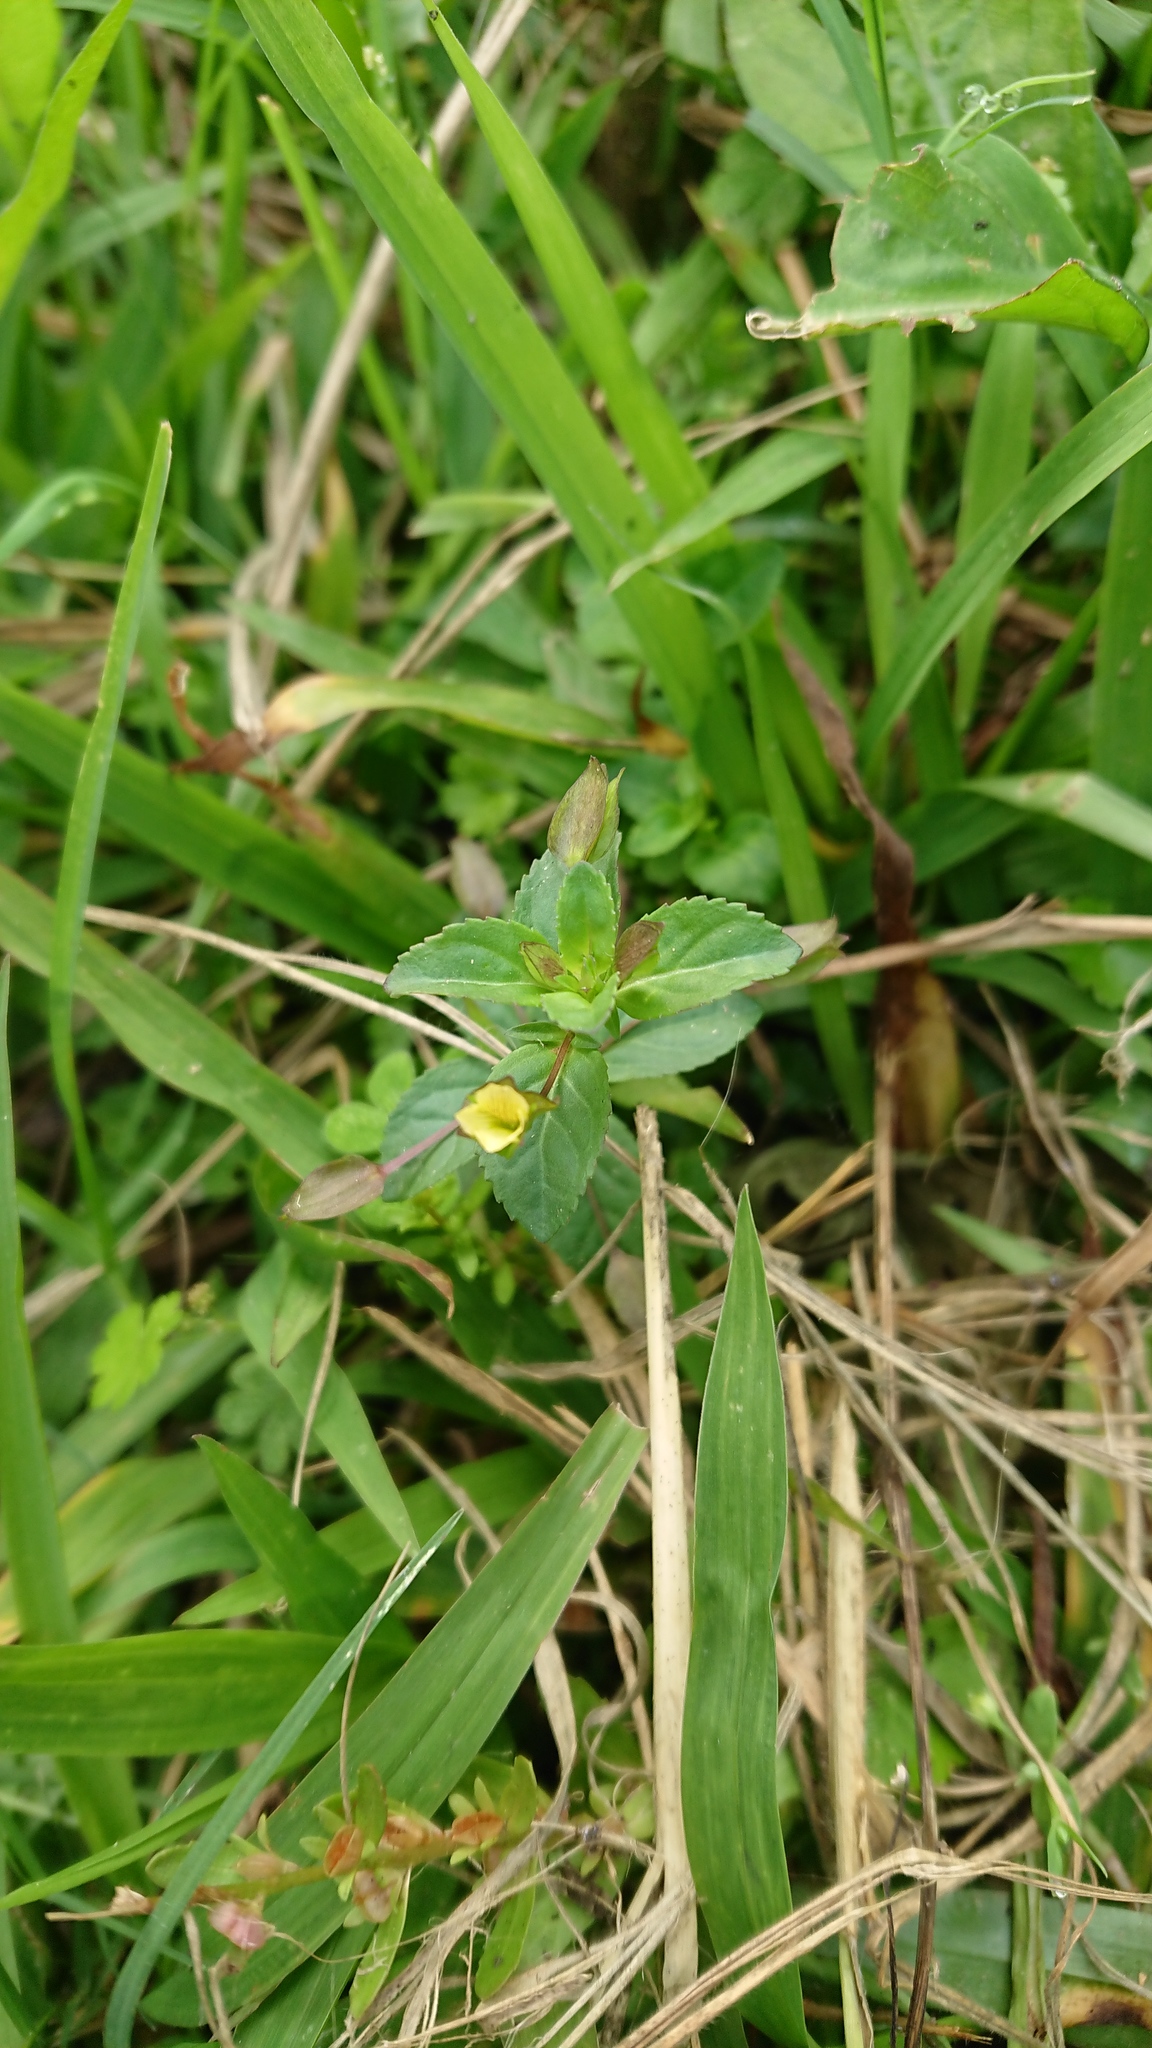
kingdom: Plantae
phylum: Tracheophyta
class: Magnoliopsida
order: Lamiales
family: Plantaginaceae
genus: Mecardonia
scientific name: Mecardonia procumbens
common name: Baby jump-up
